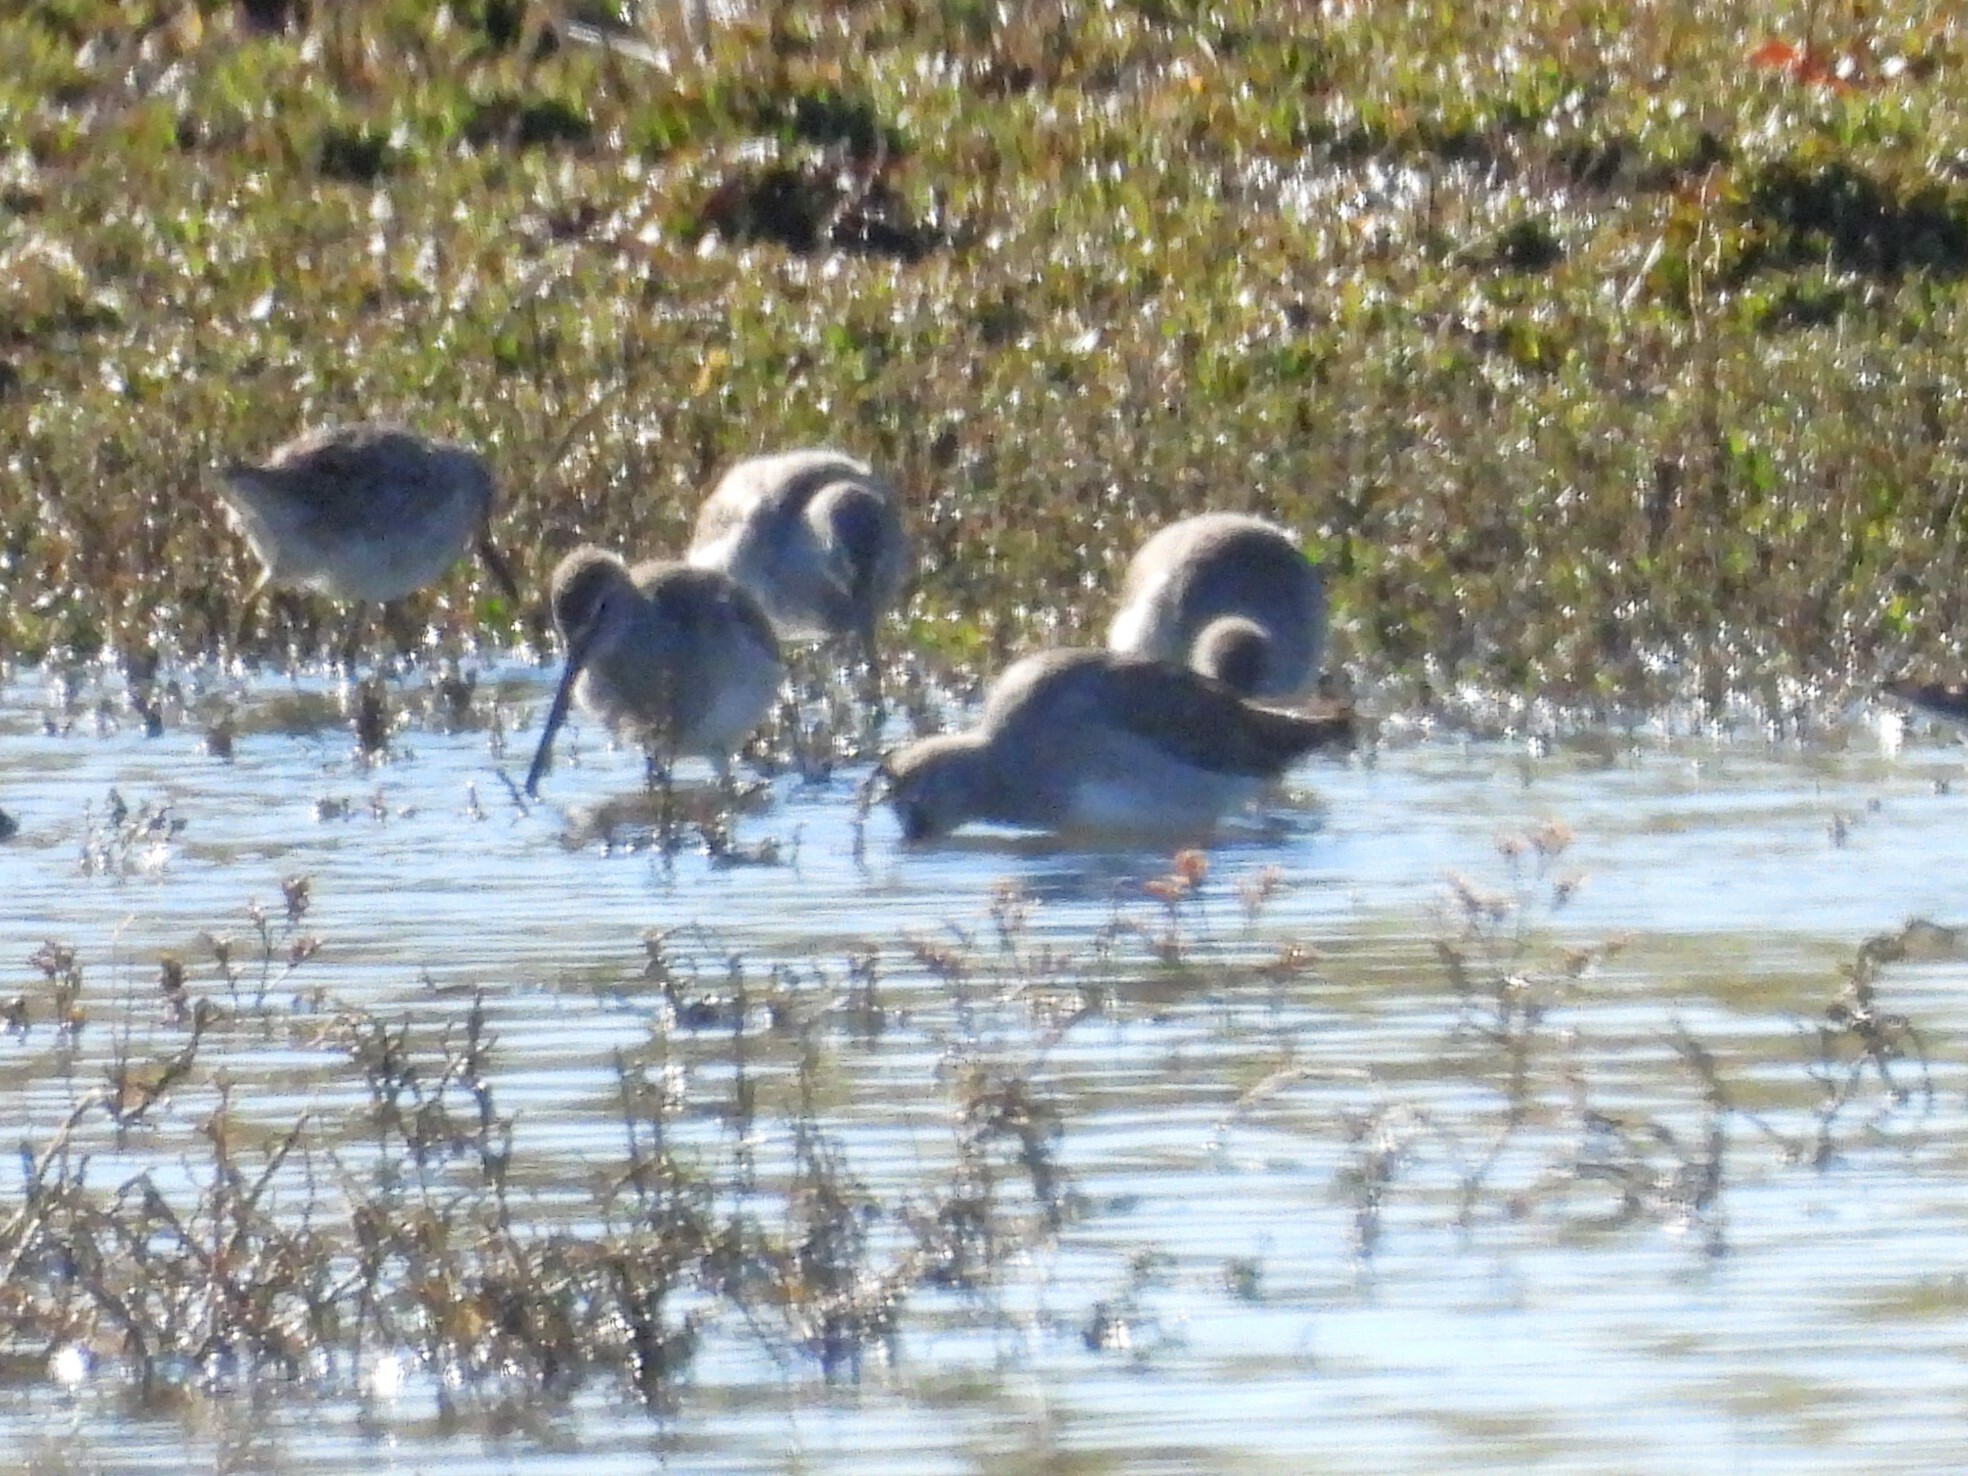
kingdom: Animalia
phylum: Chordata
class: Aves
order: Charadriiformes
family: Scolopacidae
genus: Limnodromus
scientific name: Limnodromus scolopaceus
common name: Long-billed dowitcher
